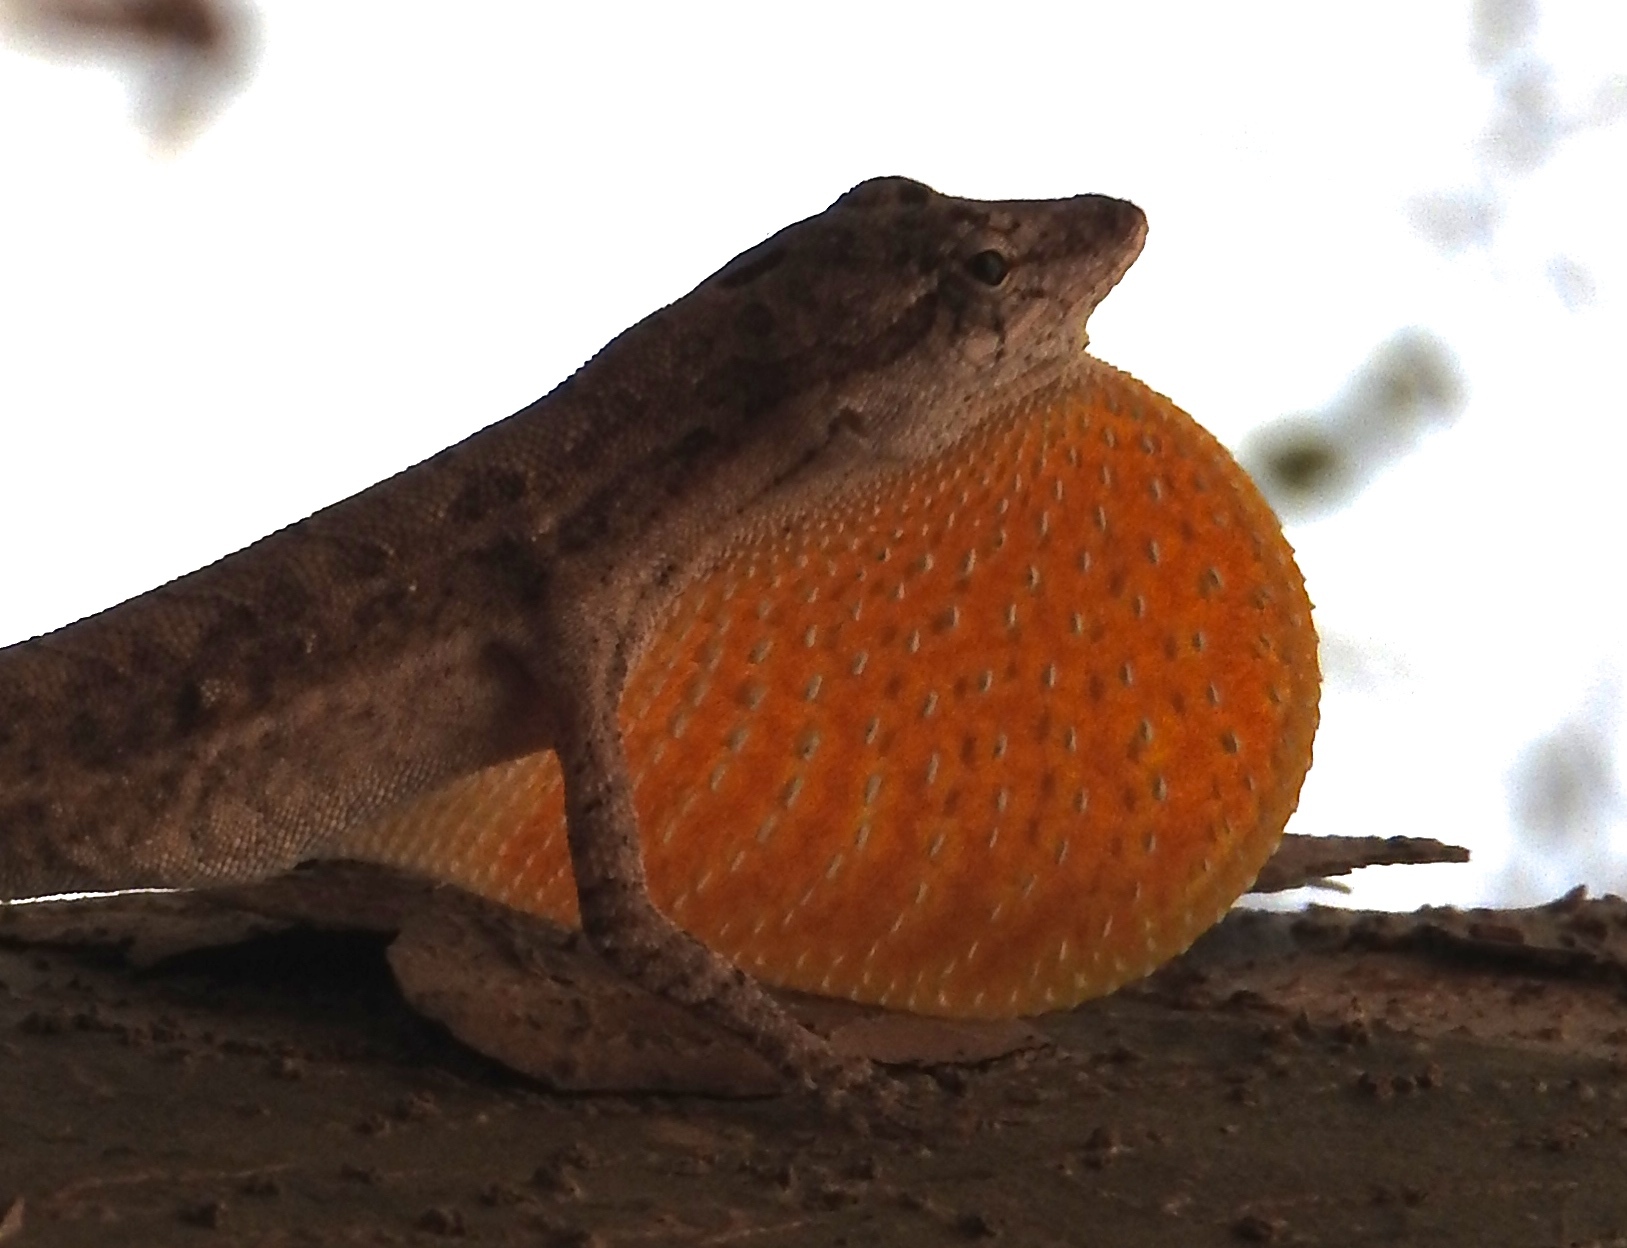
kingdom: Animalia
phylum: Chordata
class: Squamata
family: Dactyloidae
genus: Anolis
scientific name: Anolis nebulosus
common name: Clouded anole
